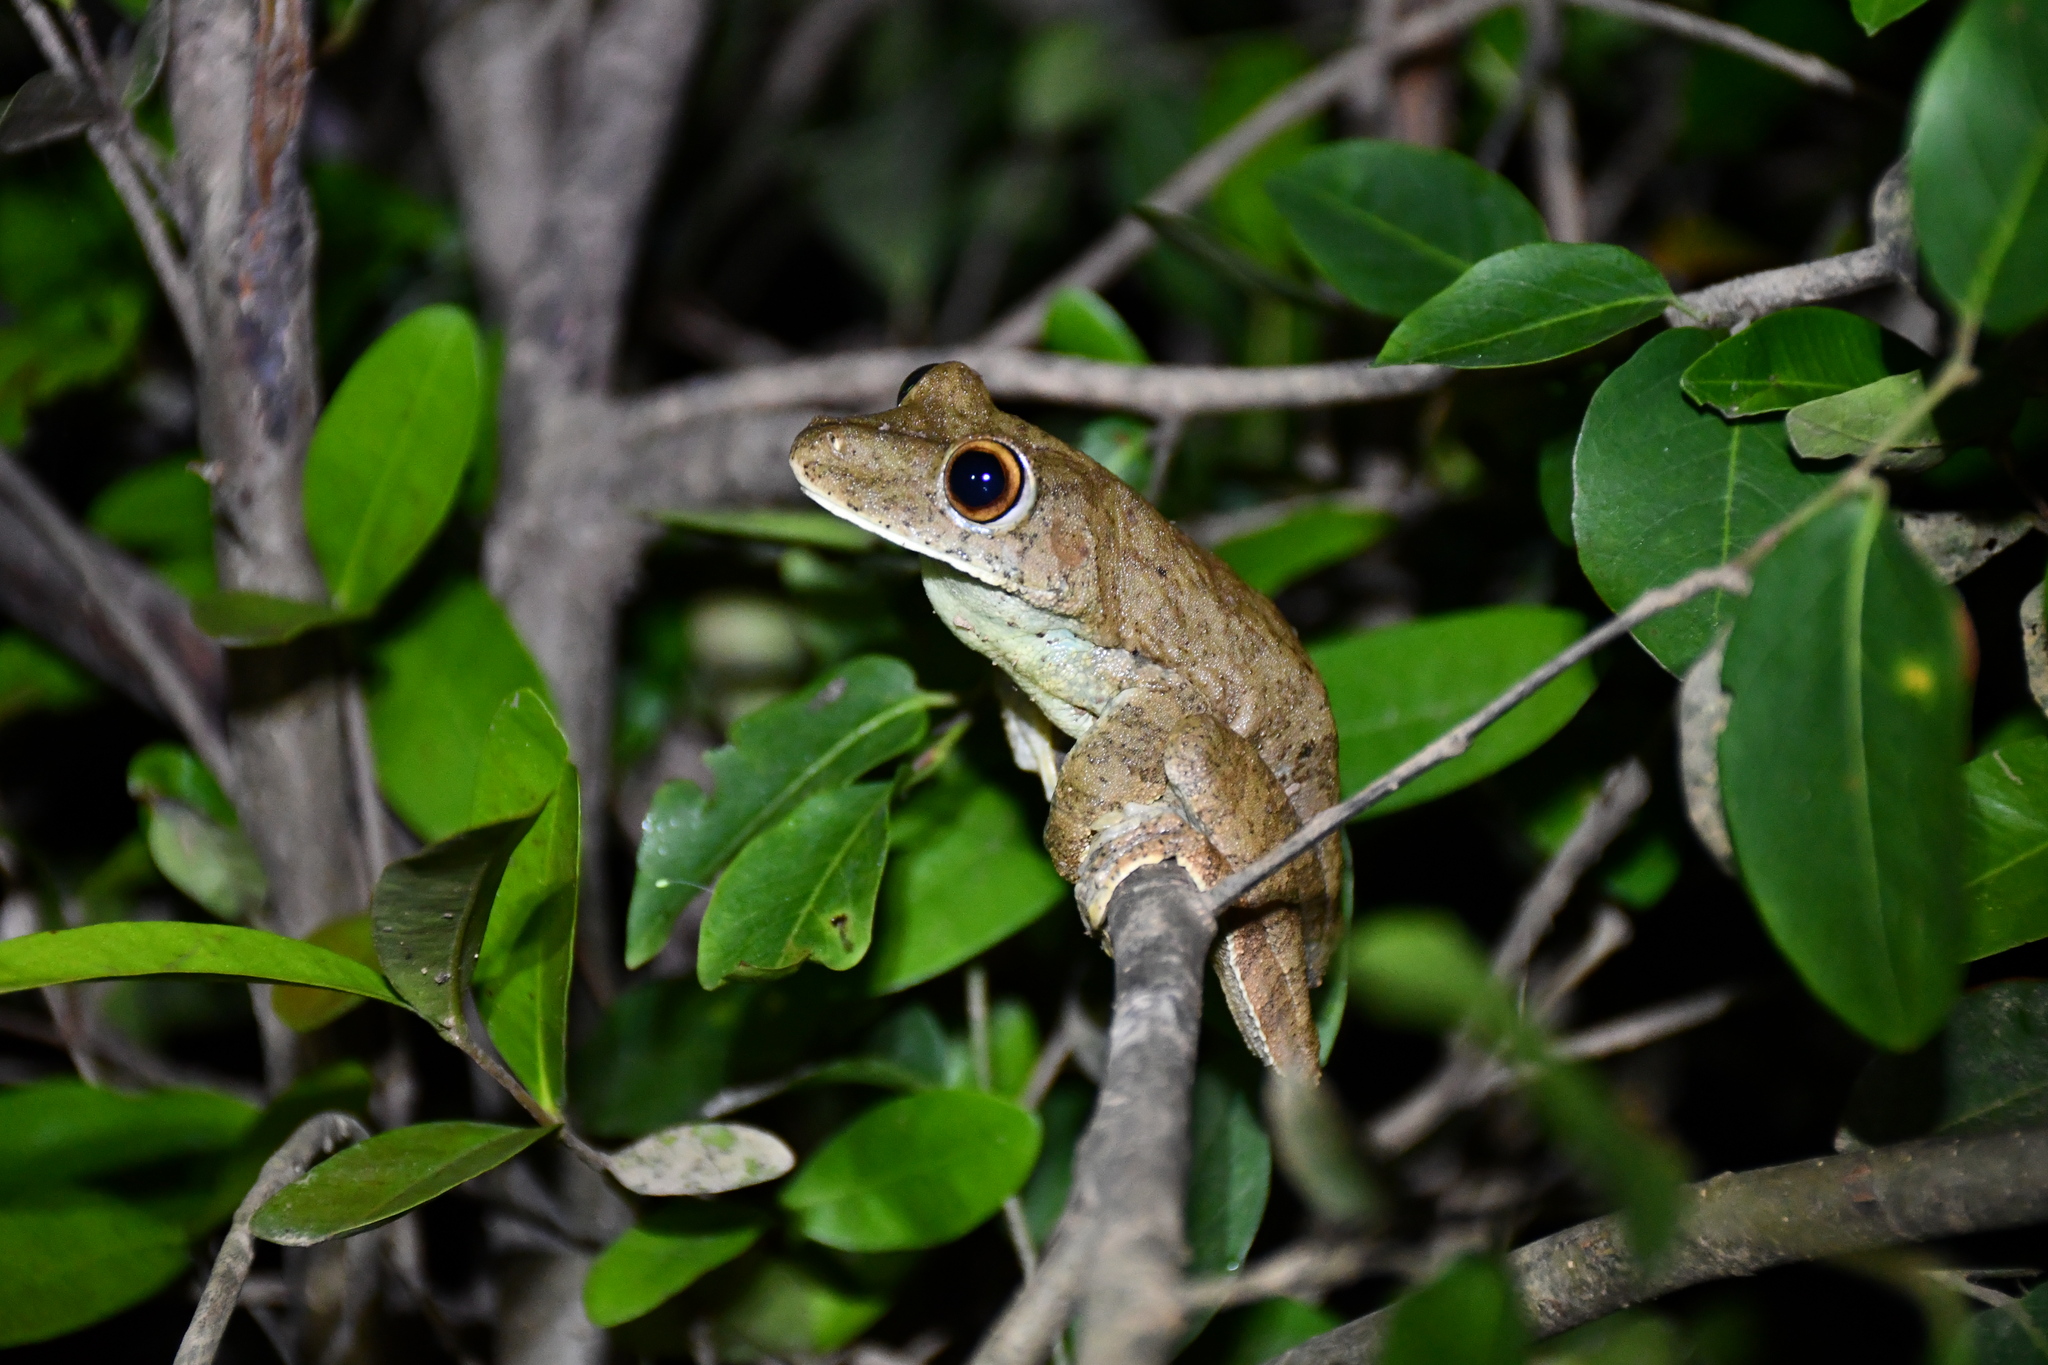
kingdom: Animalia
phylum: Chordata
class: Amphibia
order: Anura
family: Hylidae
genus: Boana
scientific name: Boana boans
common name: Giant gladiator treefrog
